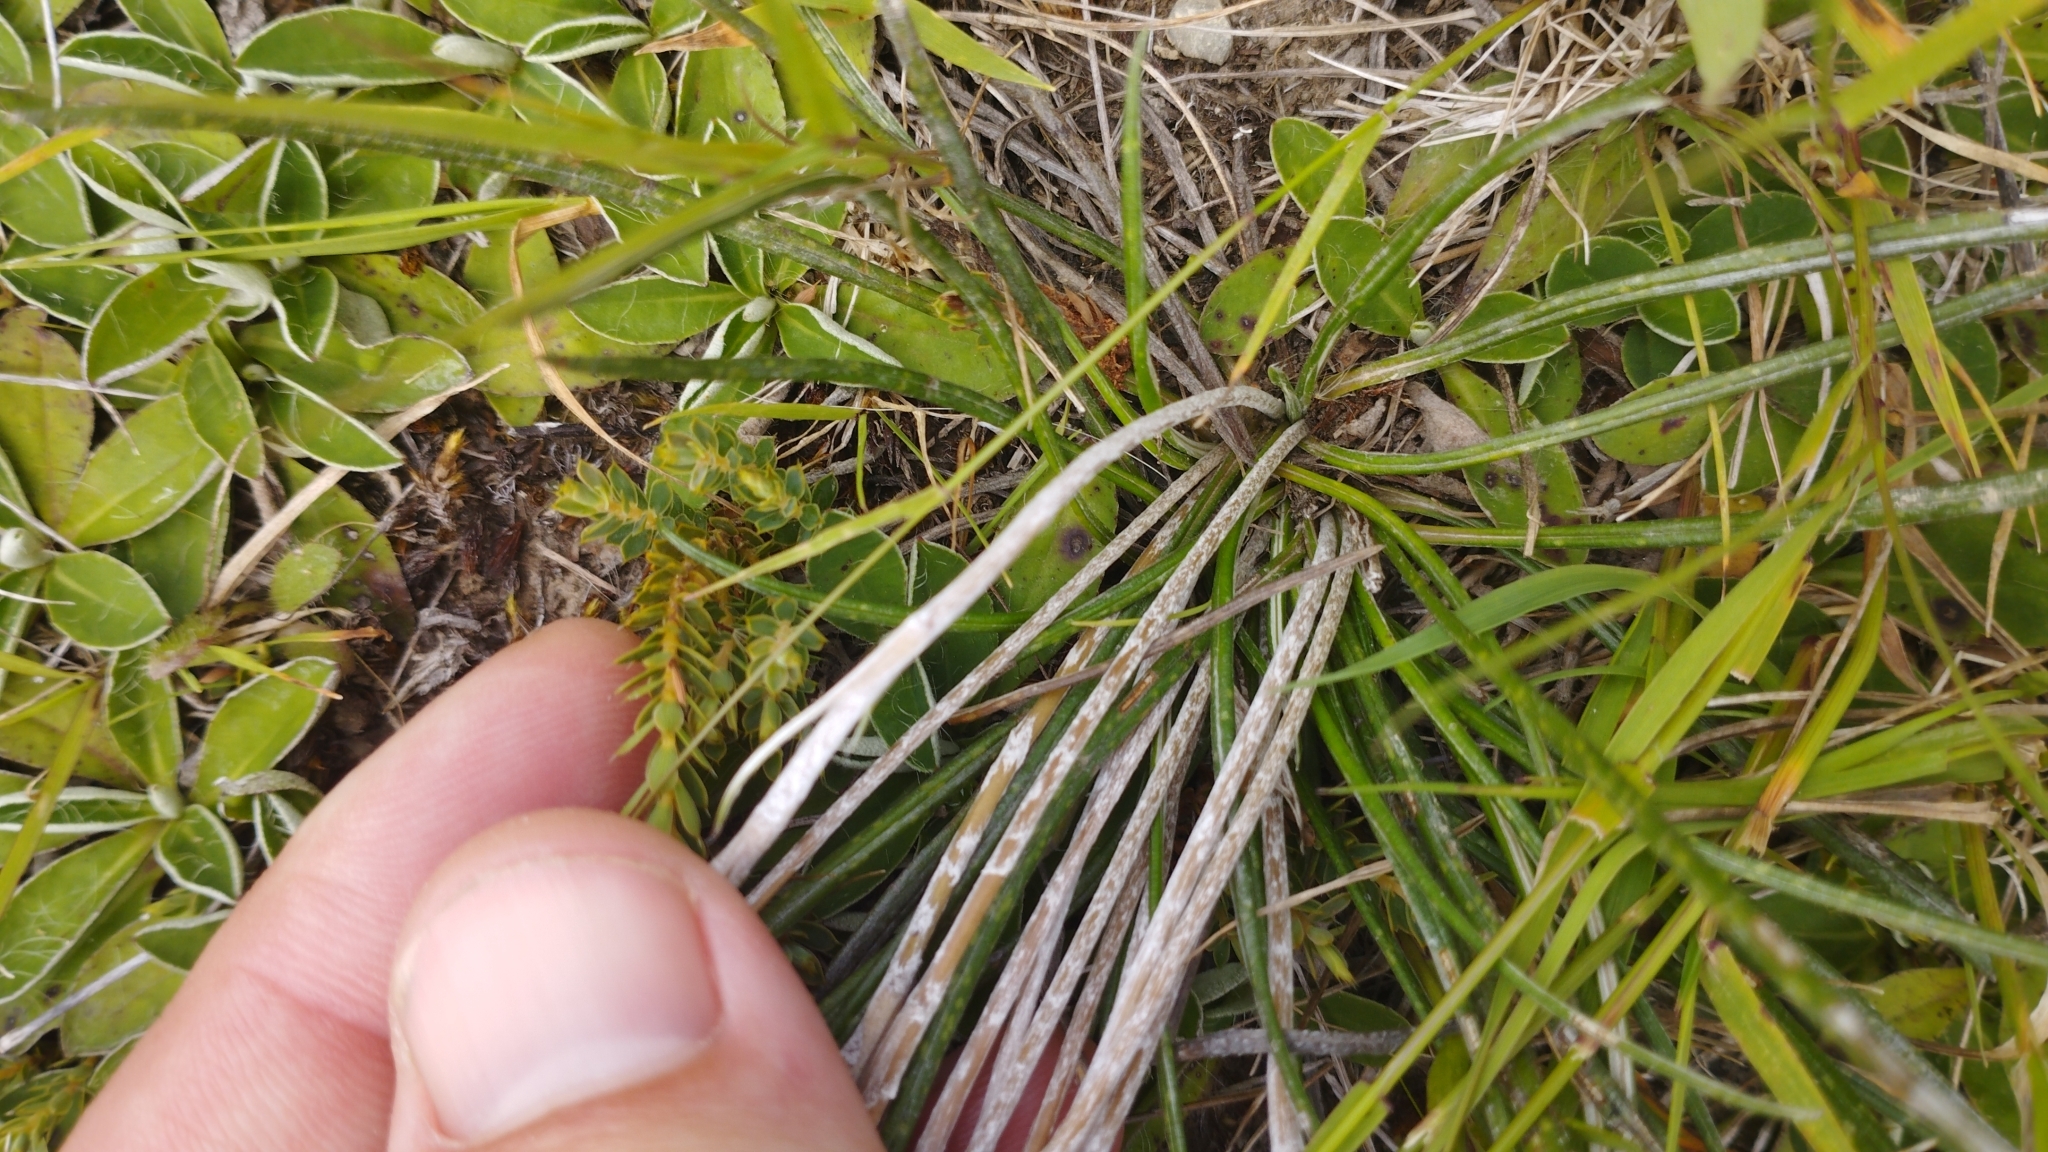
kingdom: Plantae
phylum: Tracheophyta
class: Magnoliopsida
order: Asterales
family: Asteraceae
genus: Celmisia
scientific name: Celmisia gracilenta
